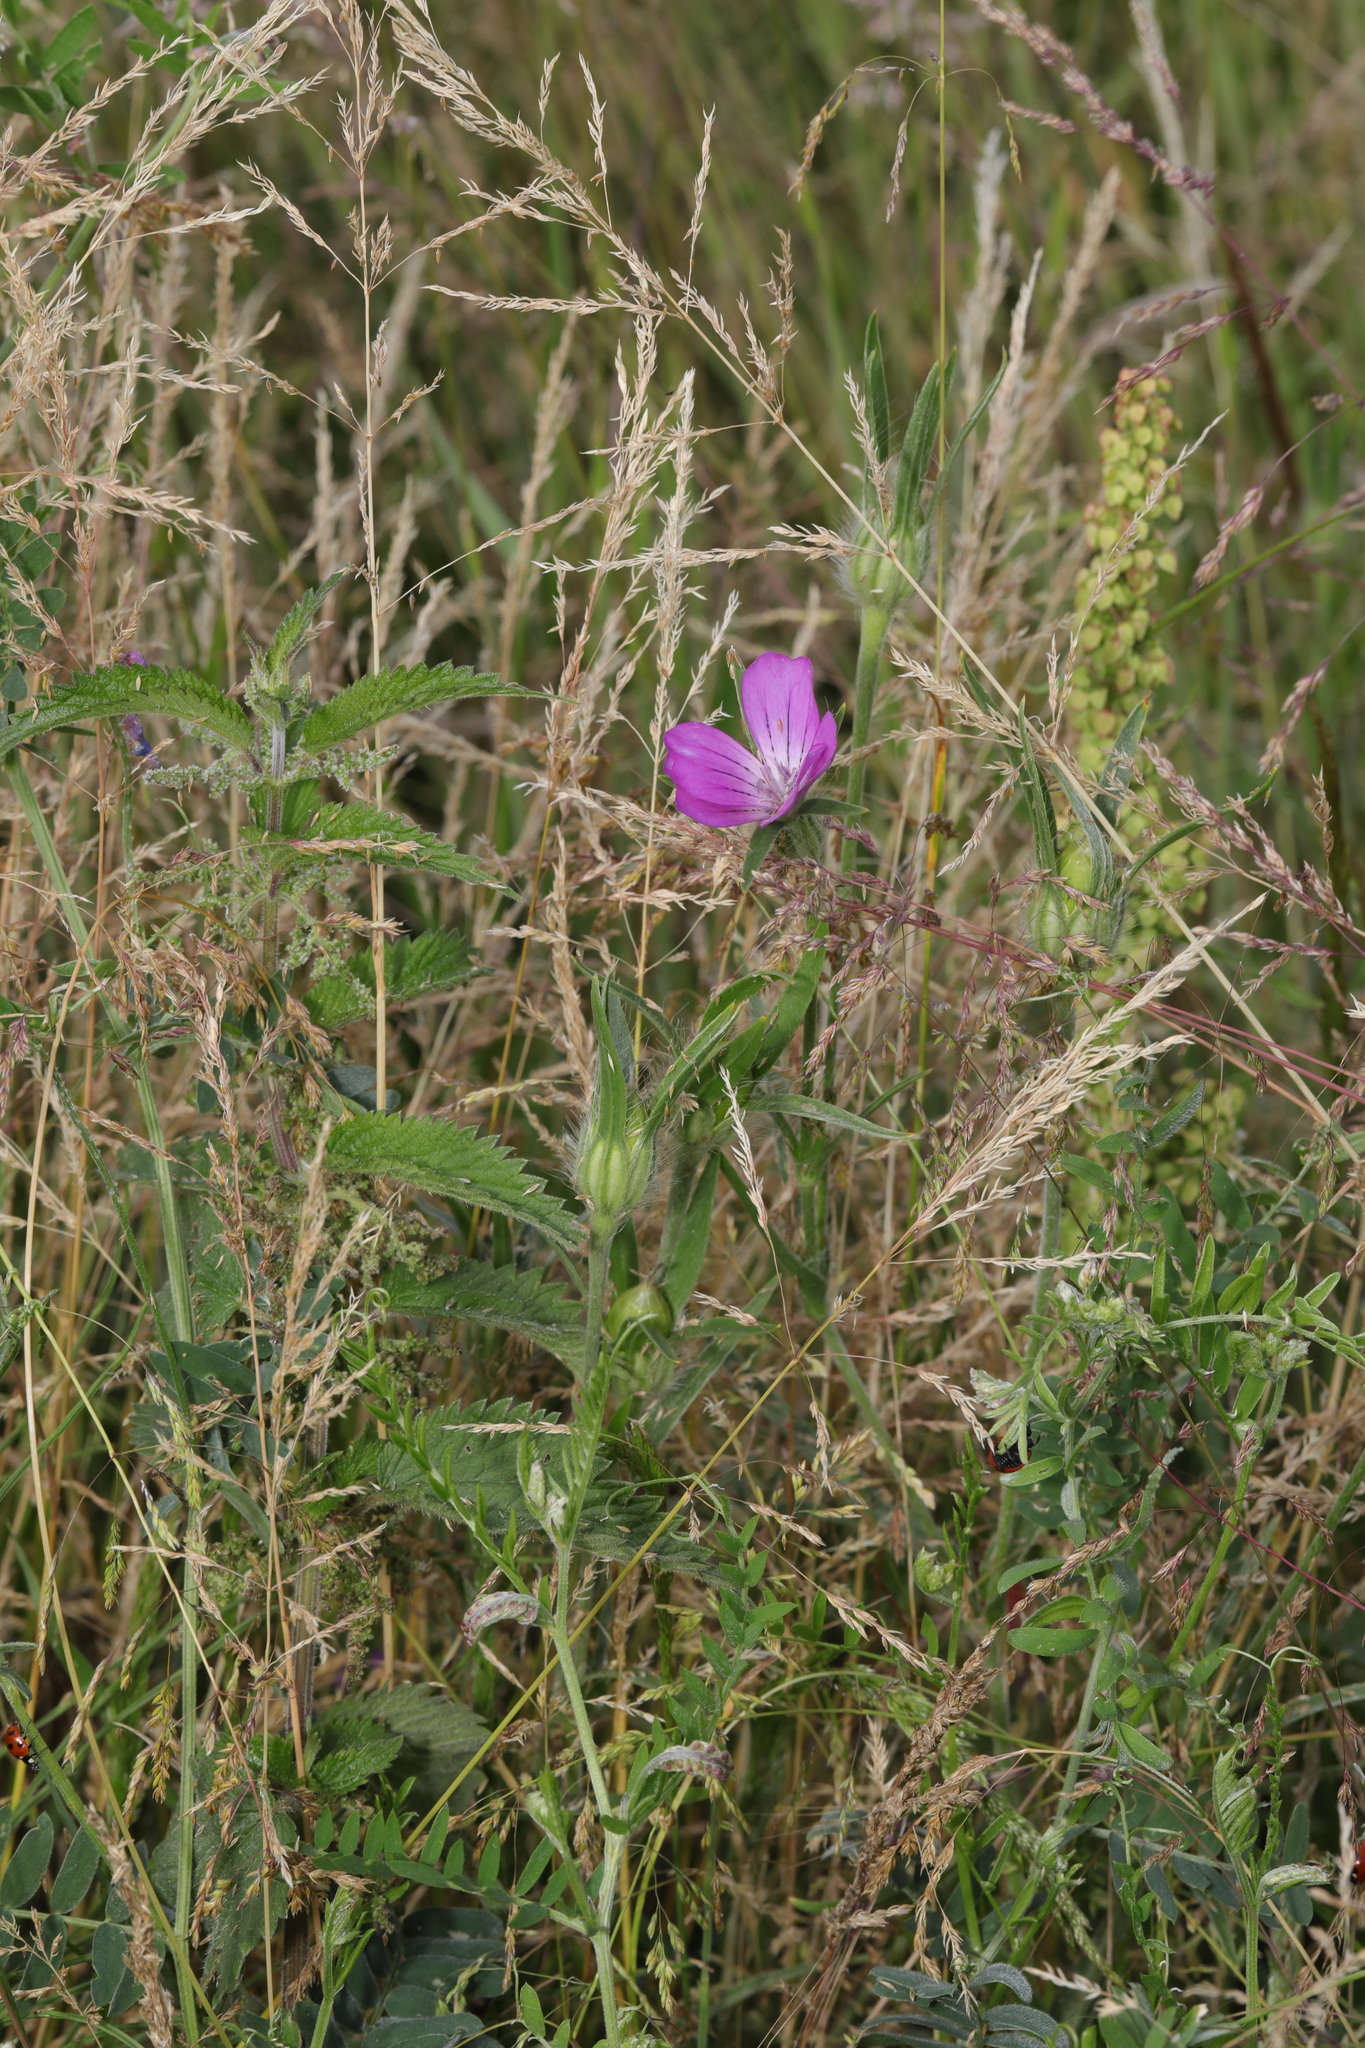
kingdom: Plantae
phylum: Tracheophyta
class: Magnoliopsida
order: Caryophyllales
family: Caryophyllaceae
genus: Agrostemma
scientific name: Agrostemma githago
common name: Common corncockle
